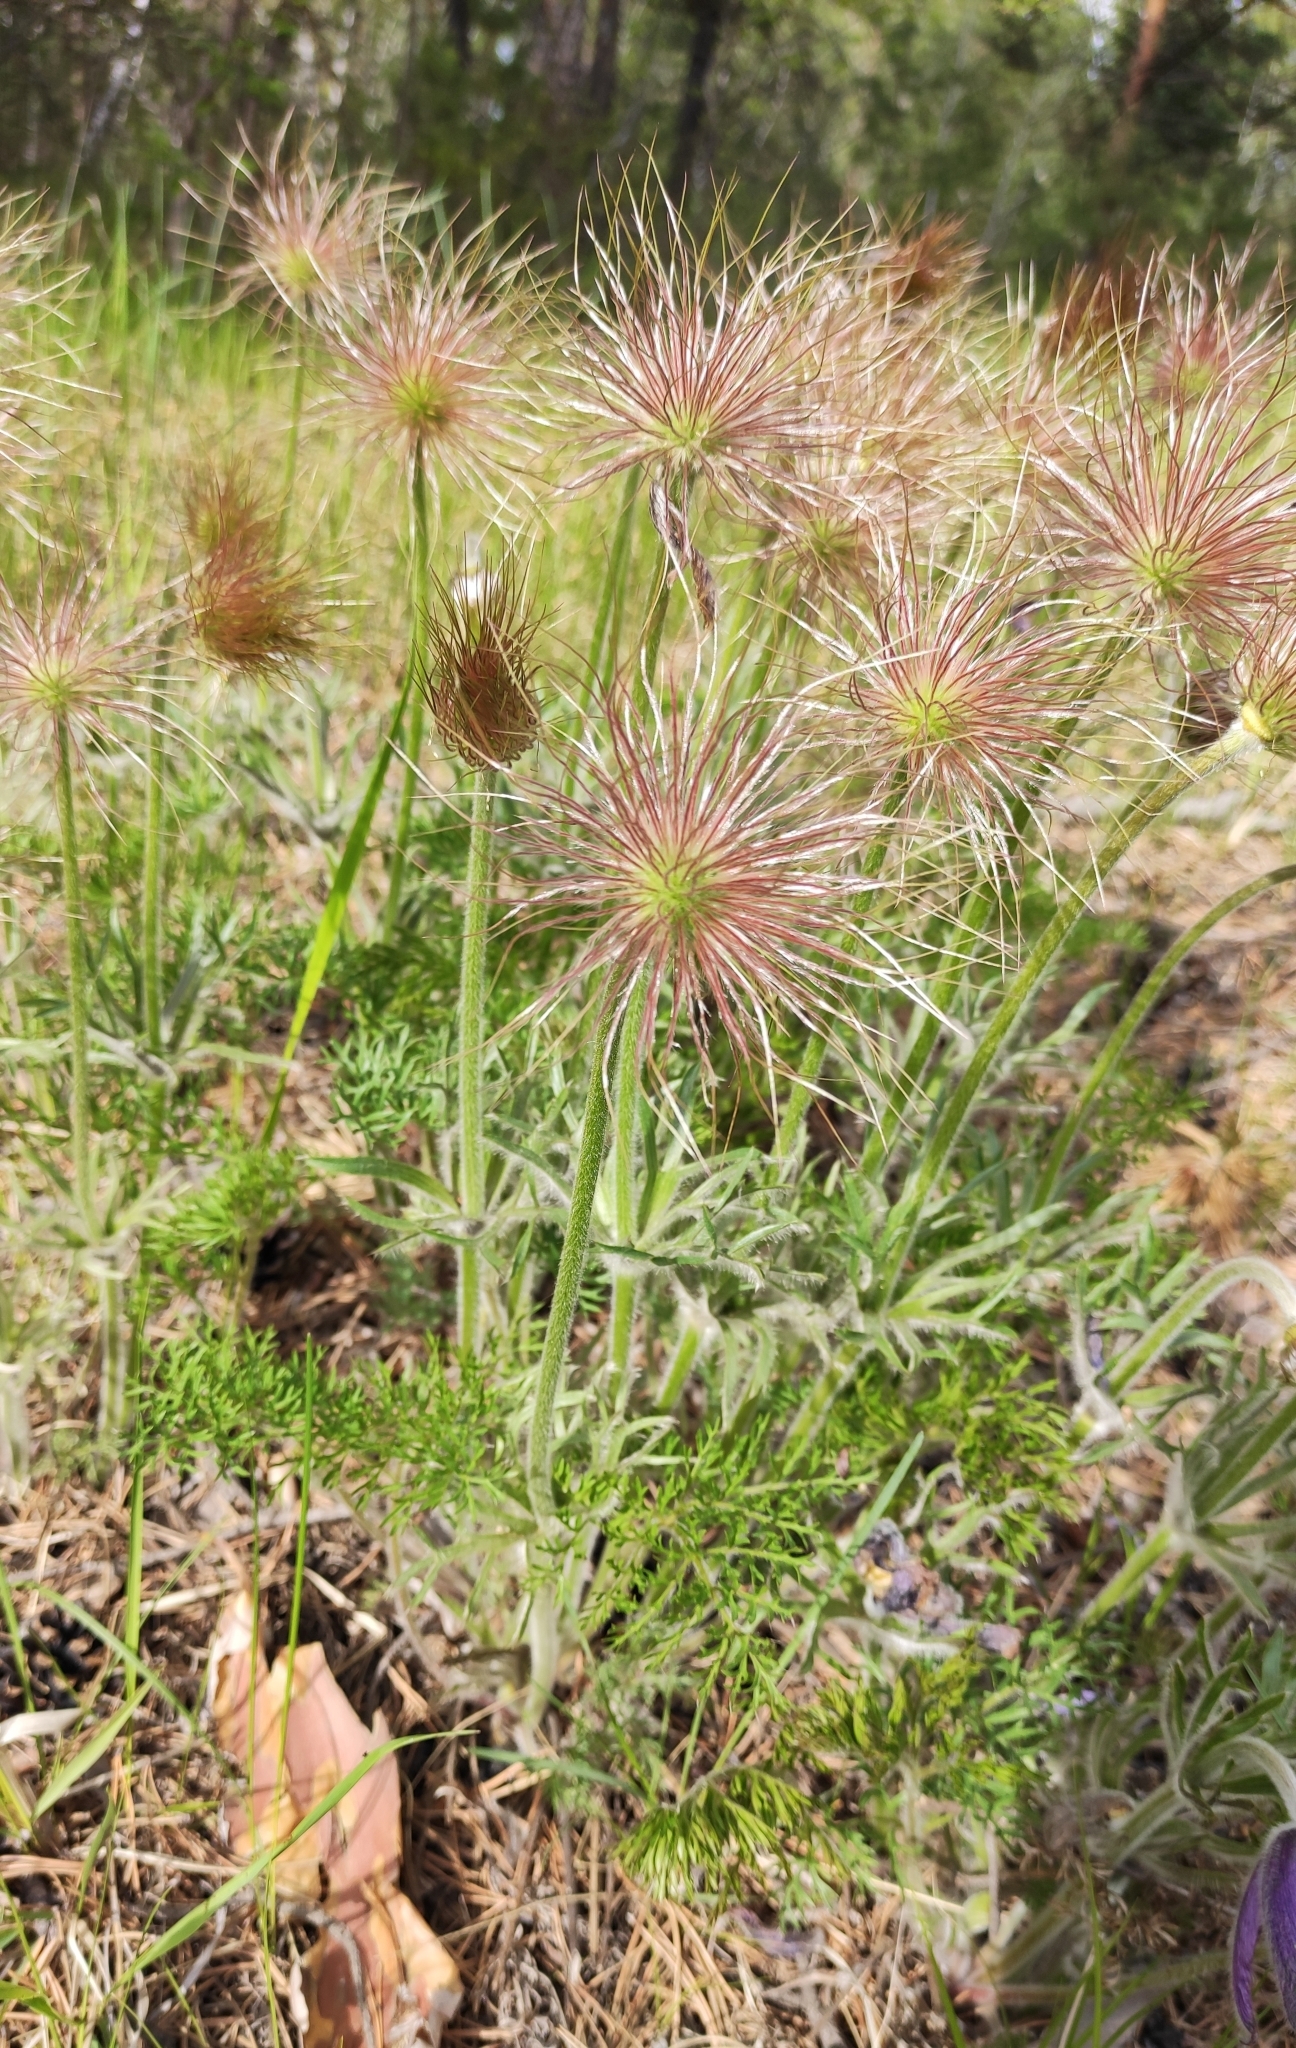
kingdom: Plantae
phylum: Tracheophyta
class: Magnoliopsida
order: Ranunculales
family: Ranunculaceae
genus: Pulsatilla
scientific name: Pulsatilla turczaninovii
